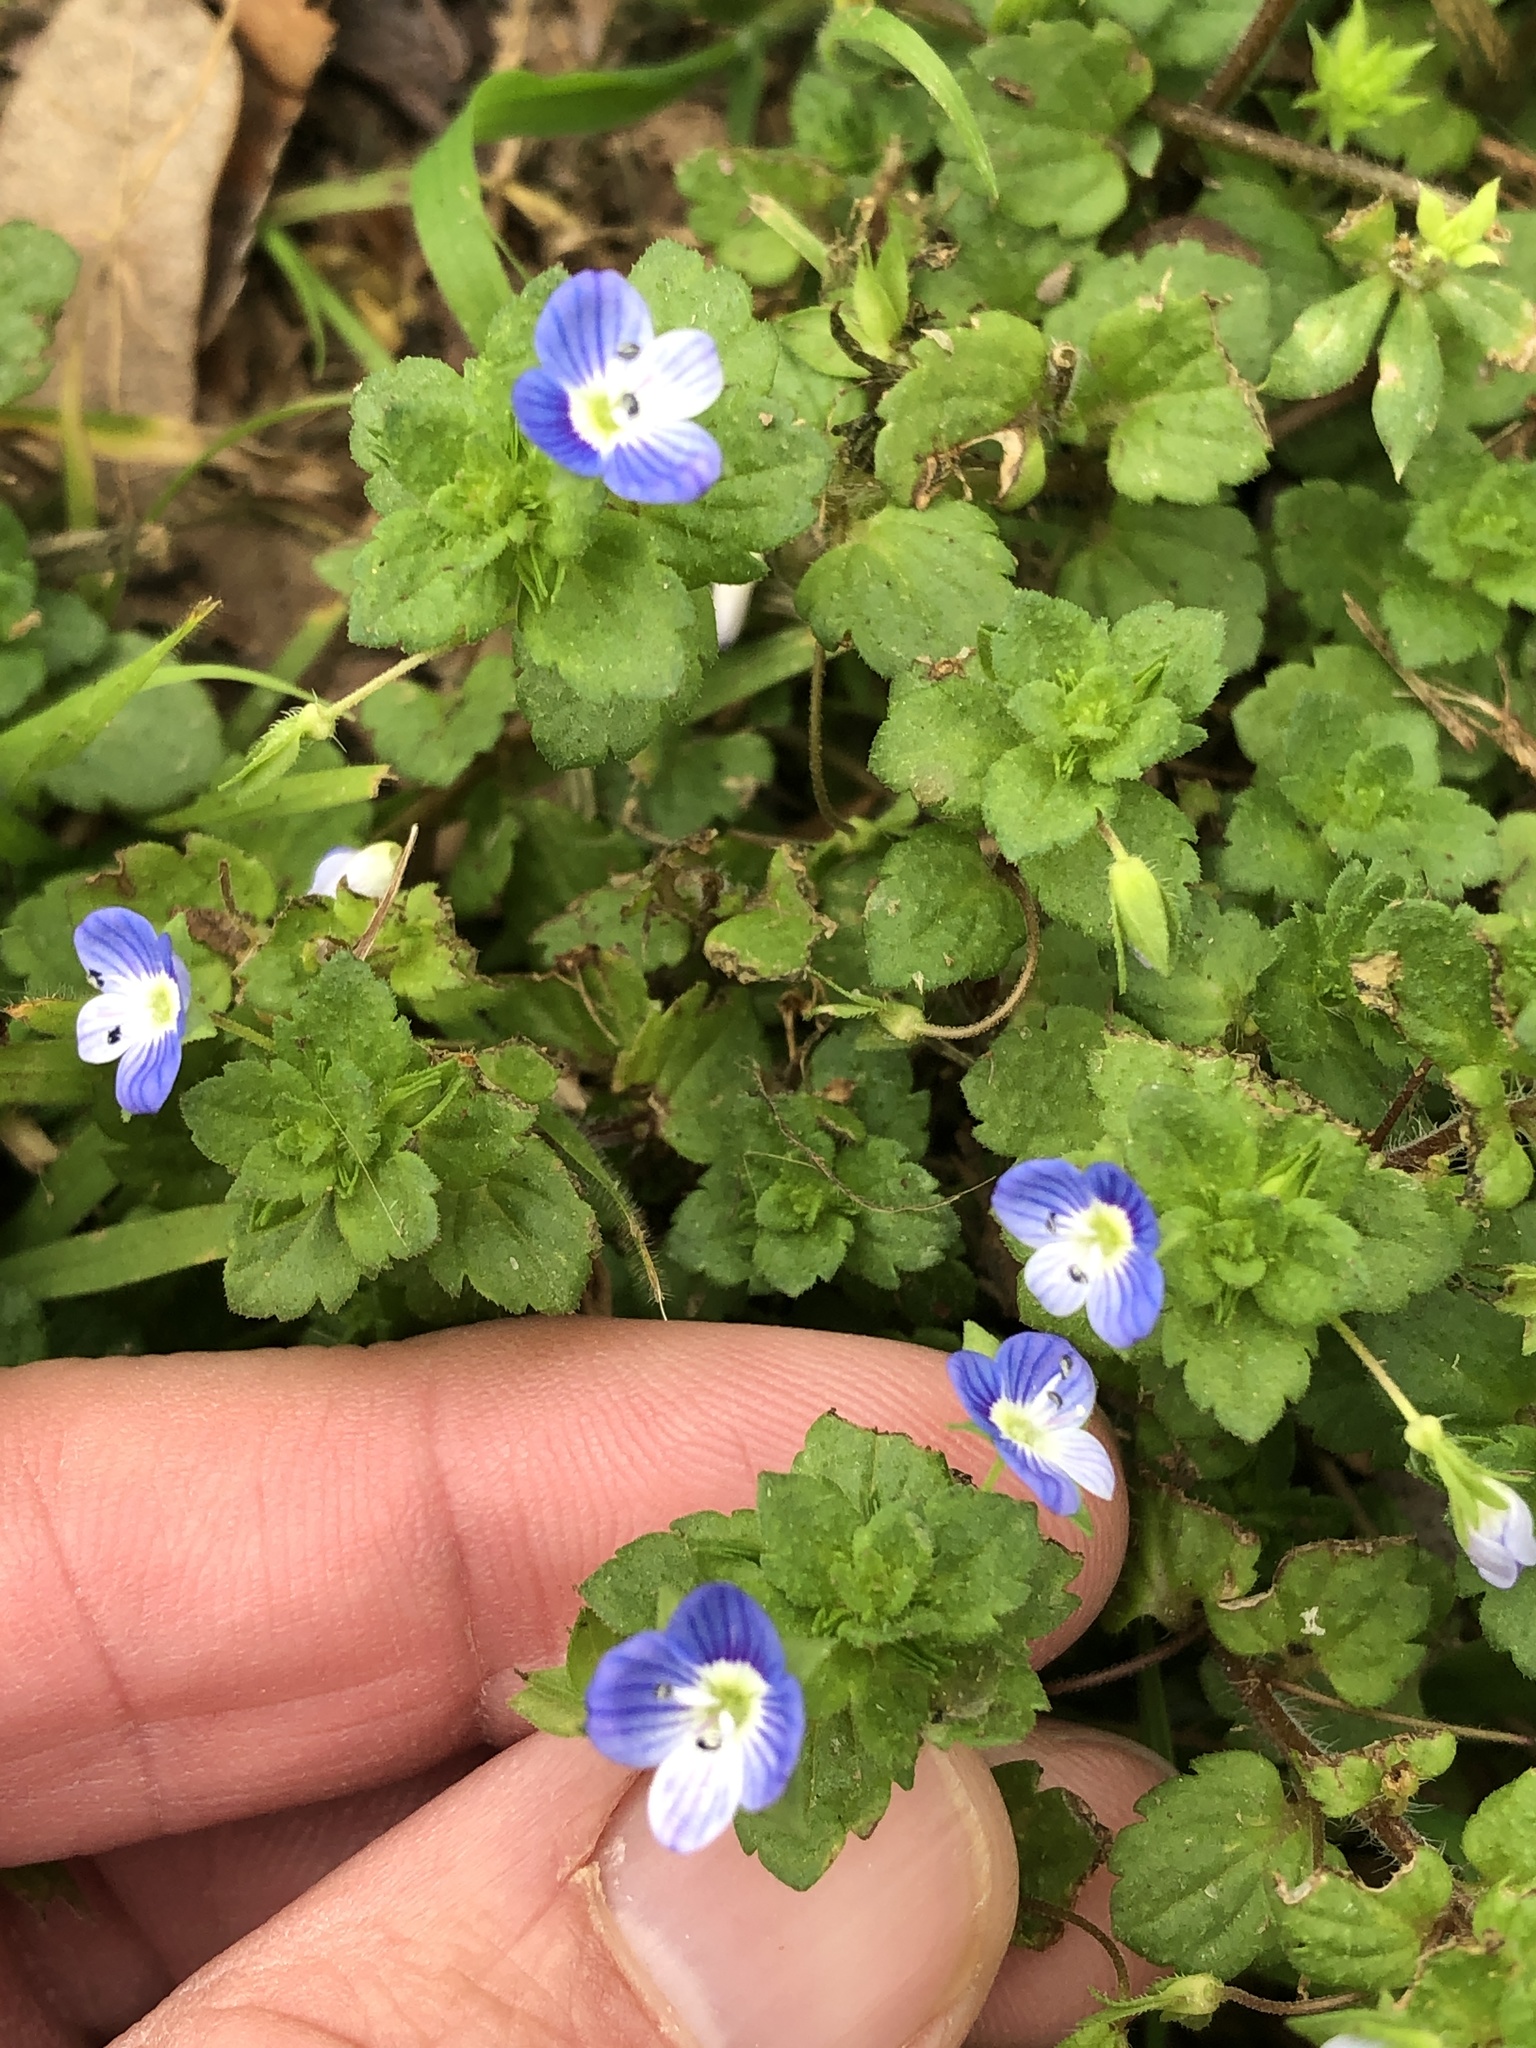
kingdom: Plantae
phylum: Tracheophyta
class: Magnoliopsida
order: Lamiales
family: Plantaginaceae
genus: Veronica
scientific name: Veronica persica
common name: Common field-speedwell
